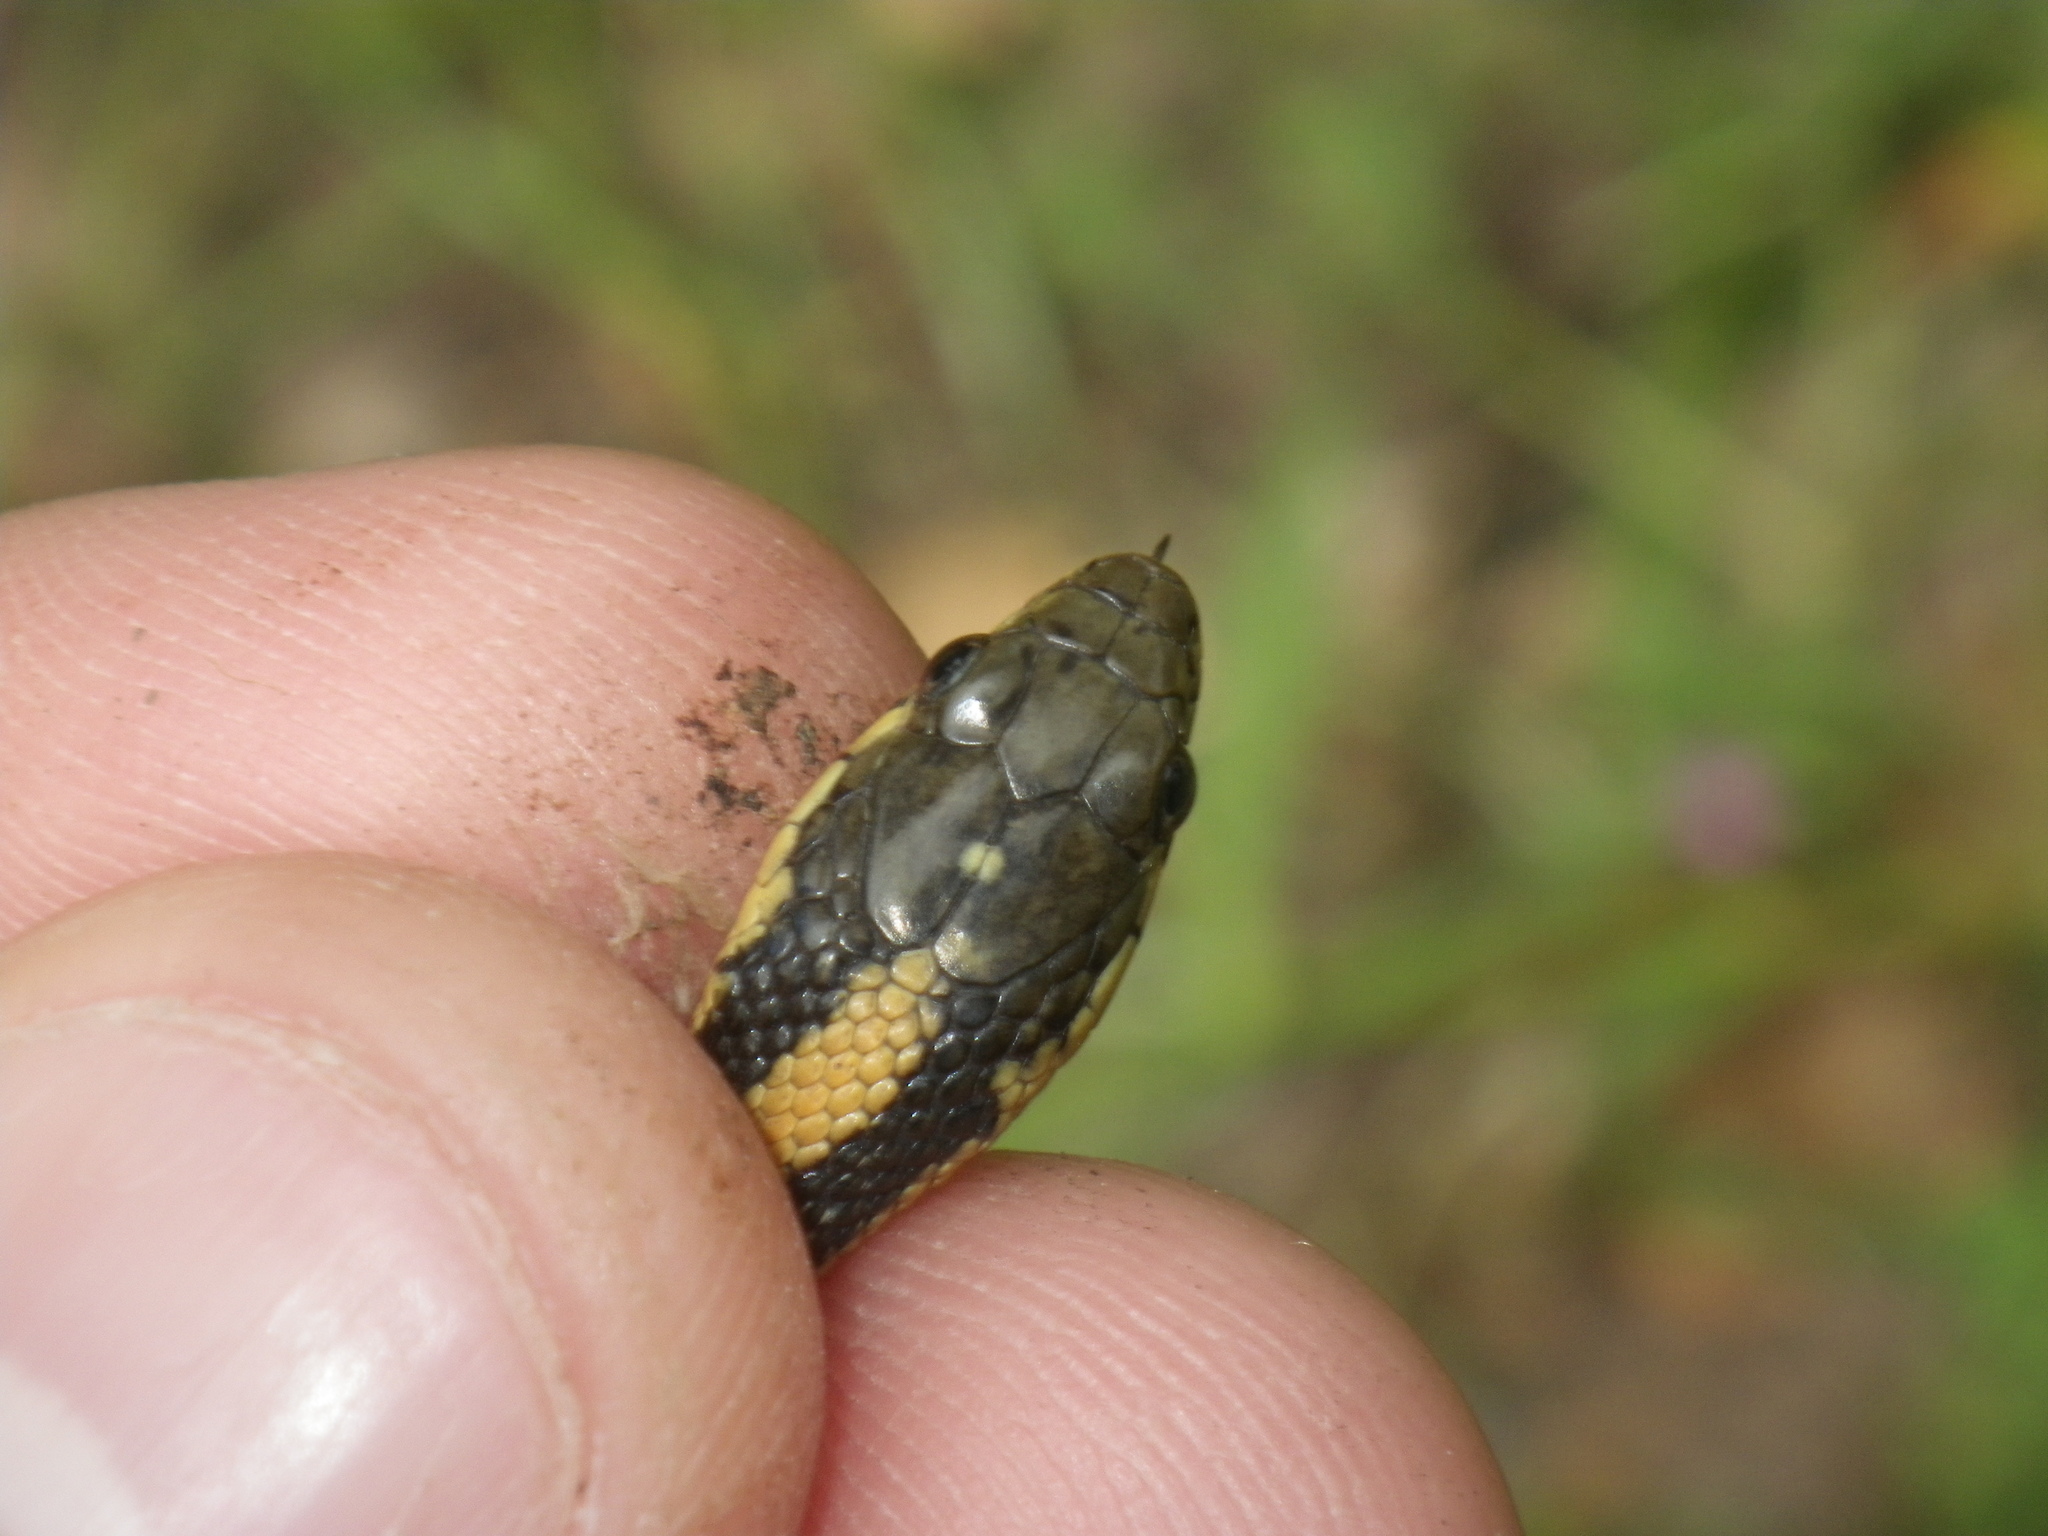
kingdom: Animalia
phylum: Chordata
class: Squamata
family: Colubridae
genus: Thamnophis
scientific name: Thamnophis atratus
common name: Pacific coast aquatic garter snake
